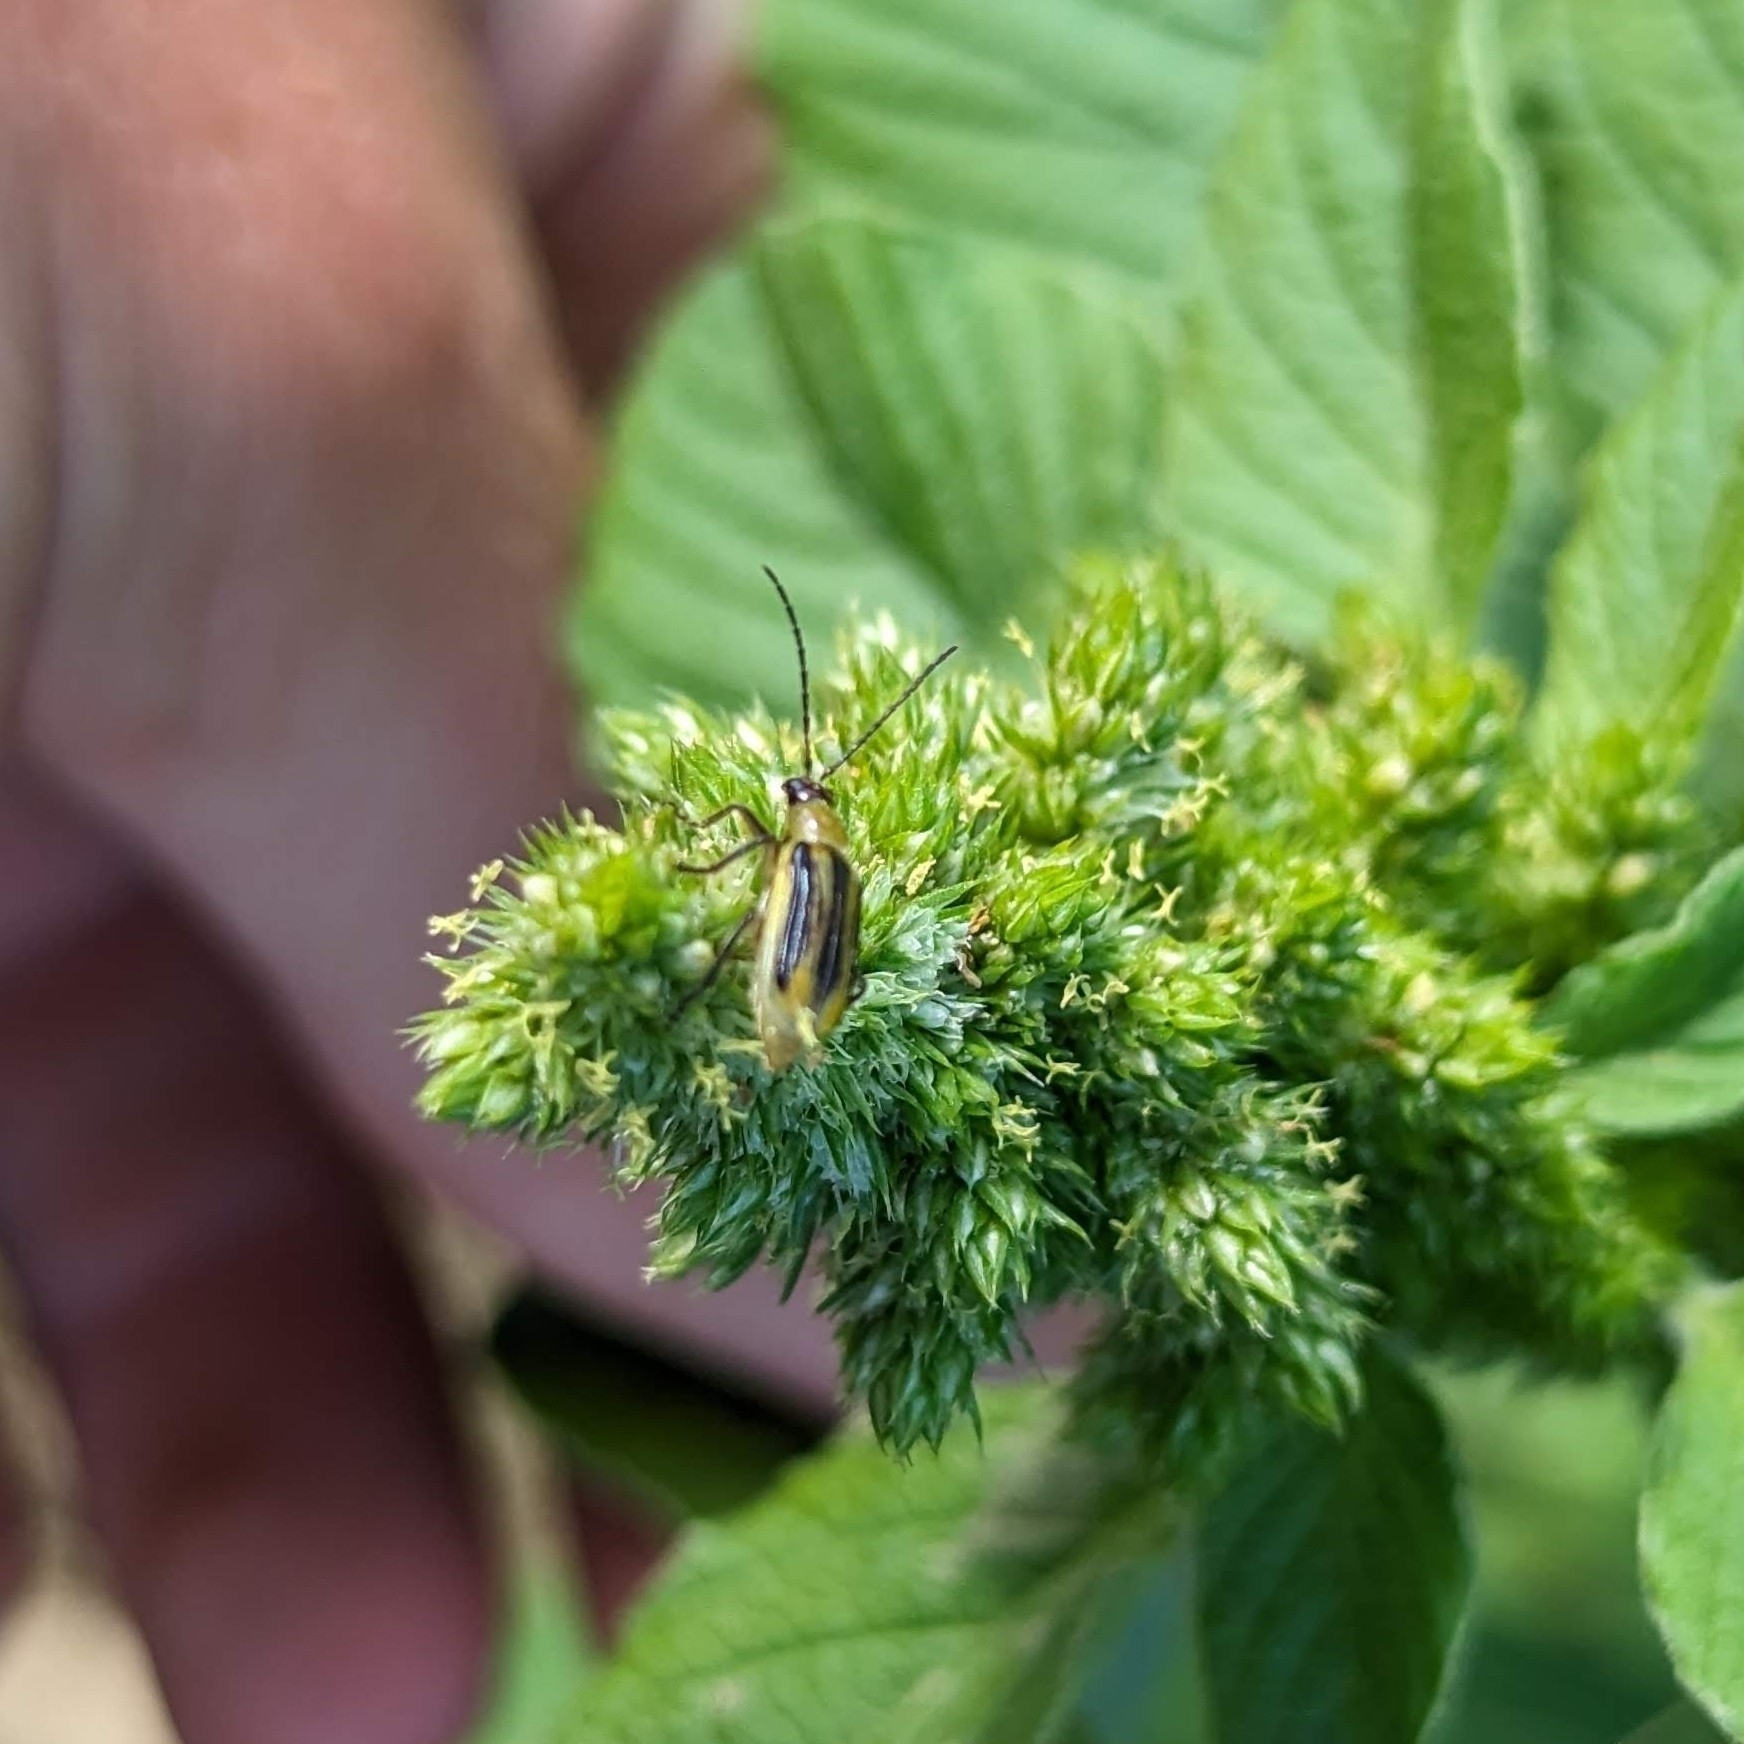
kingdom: Animalia
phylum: Arthropoda
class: Insecta
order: Coleoptera
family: Chrysomelidae
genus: Diabrotica
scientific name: Diabrotica virgifera
